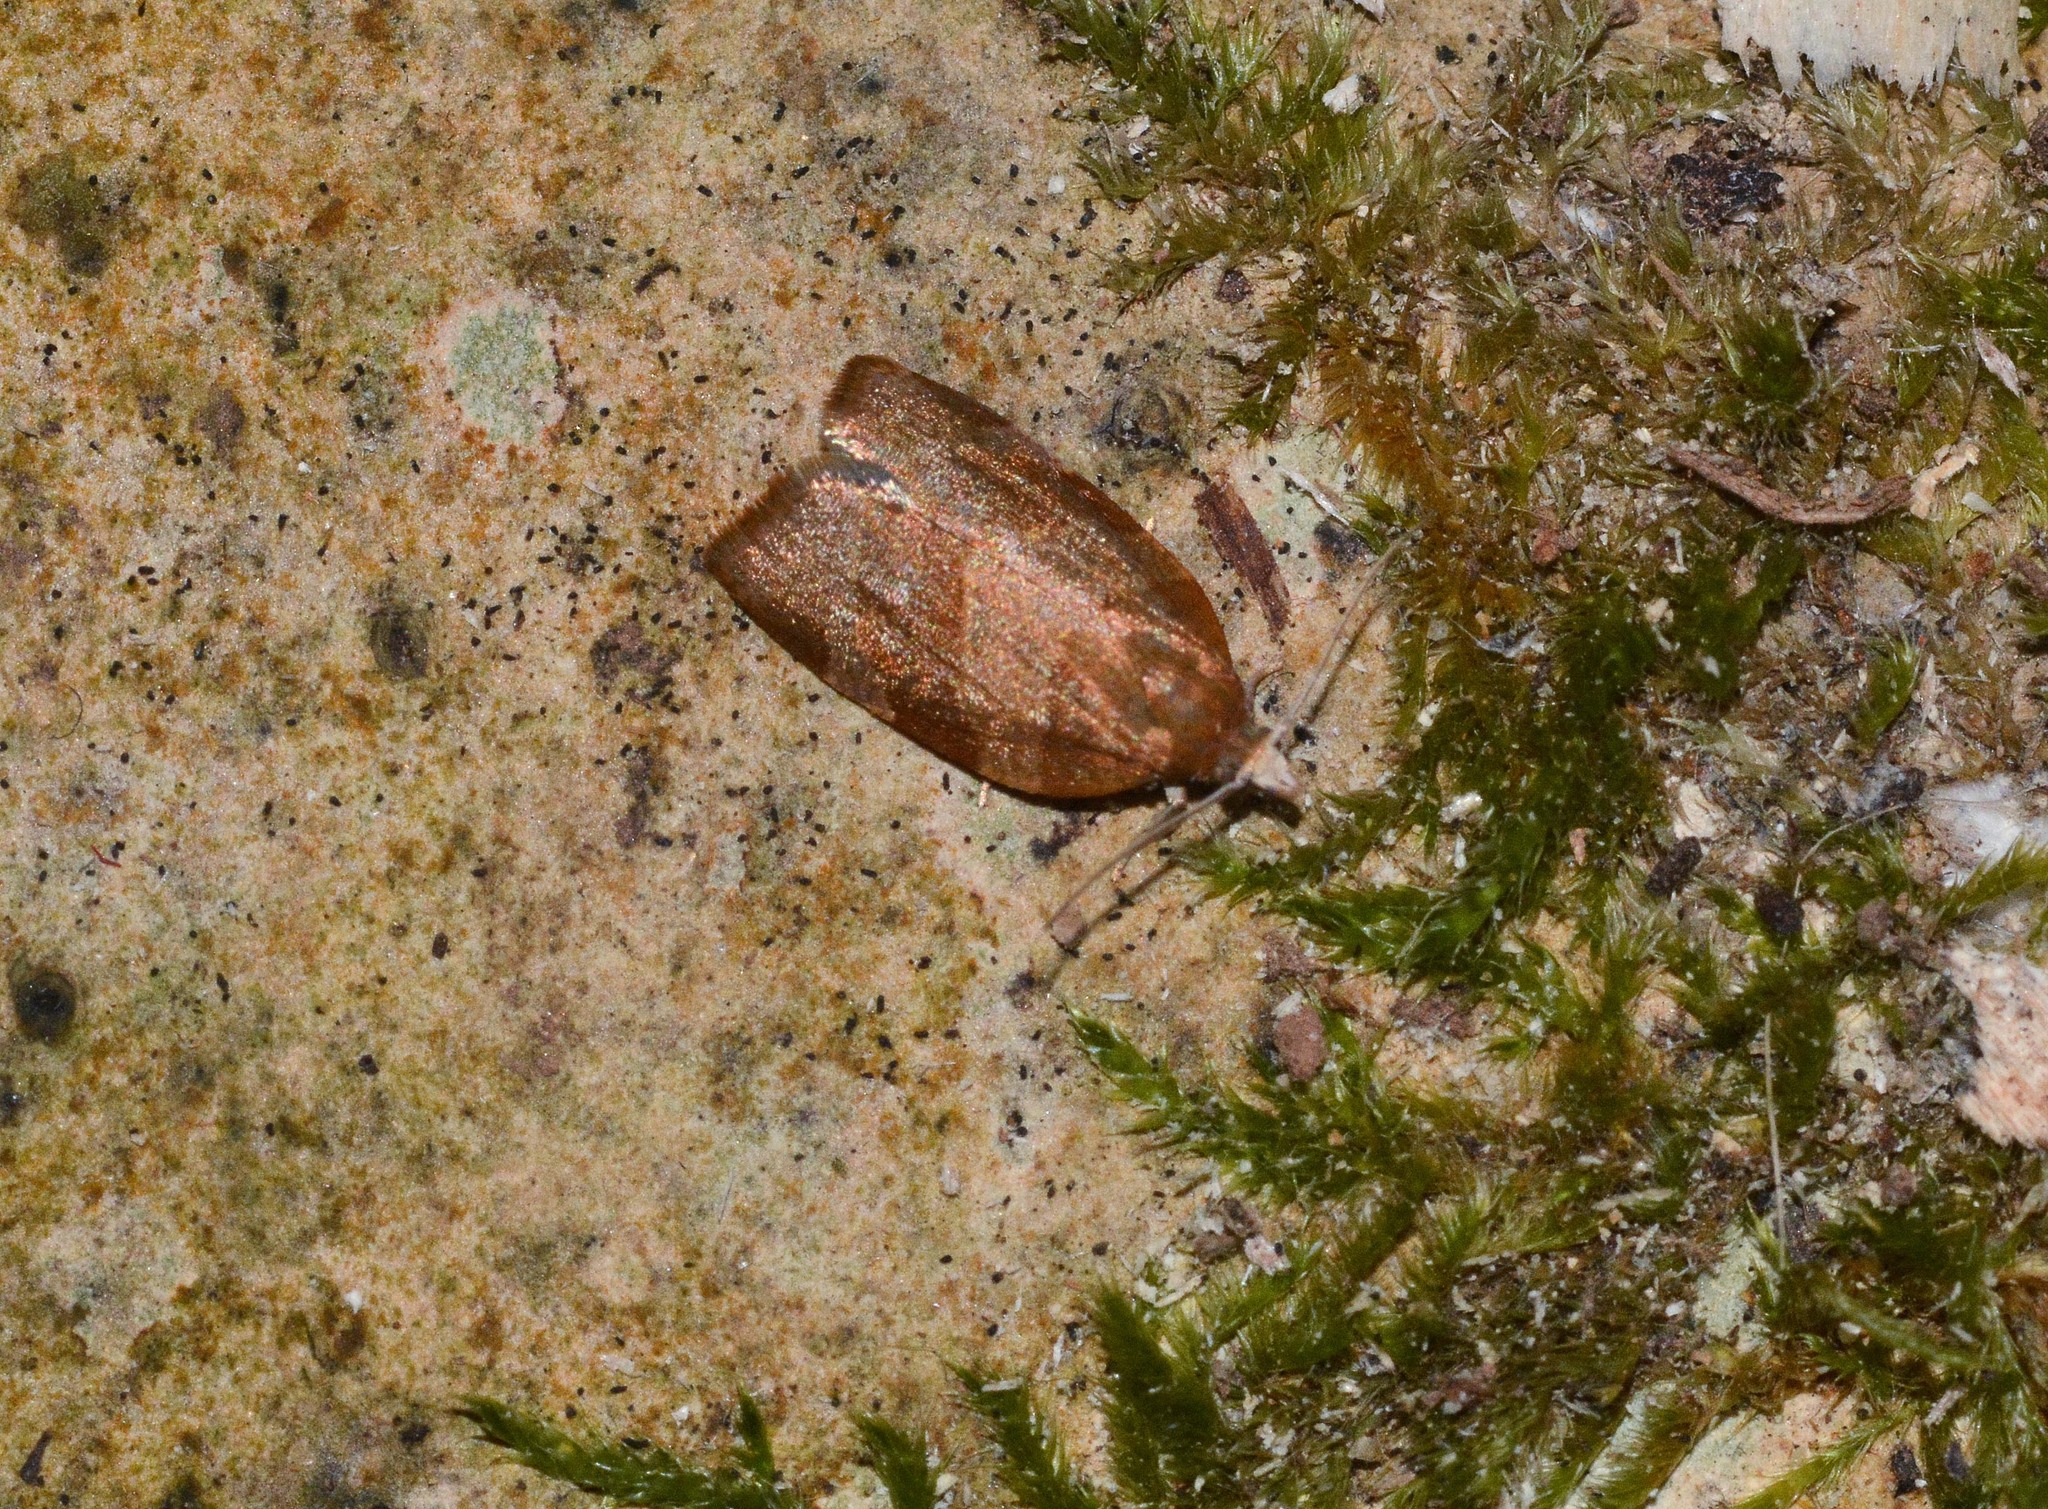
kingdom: Animalia
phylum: Arthropoda
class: Insecta
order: Lepidoptera
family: Tortricidae
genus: Pandemis
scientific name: Pandemis heparana
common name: Dark fruit-tree tortrix
